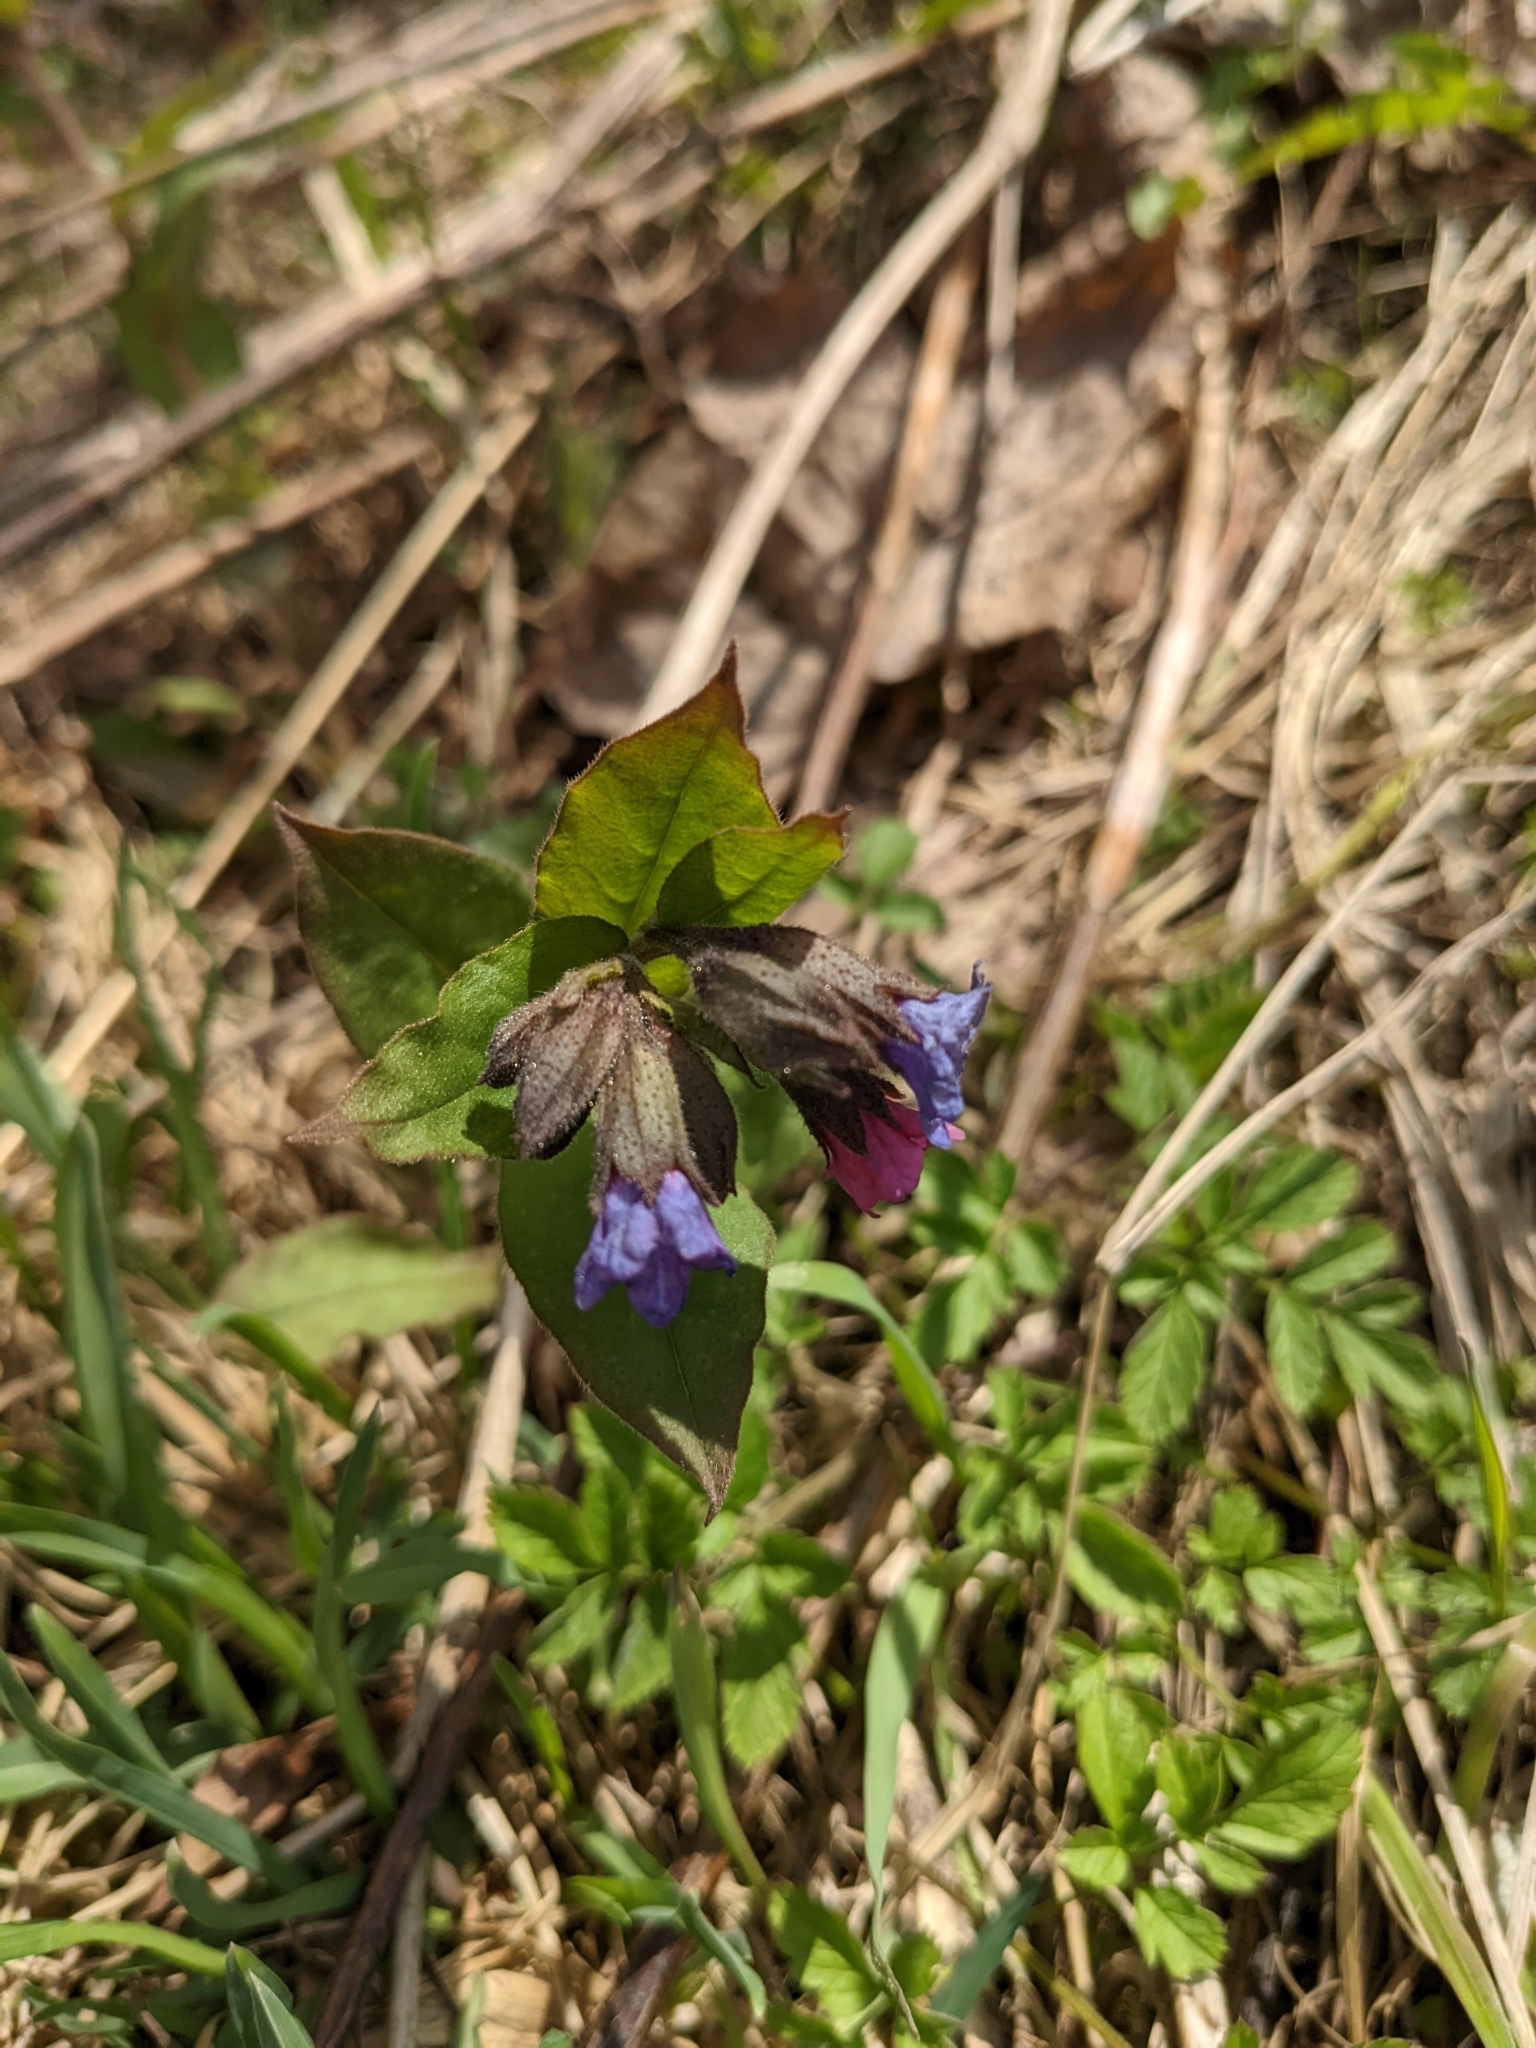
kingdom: Plantae
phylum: Tracheophyta
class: Magnoliopsida
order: Boraginales
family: Boraginaceae
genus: Pulmonaria
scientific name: Pulmonaria obscura
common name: Suffolk lungwort
